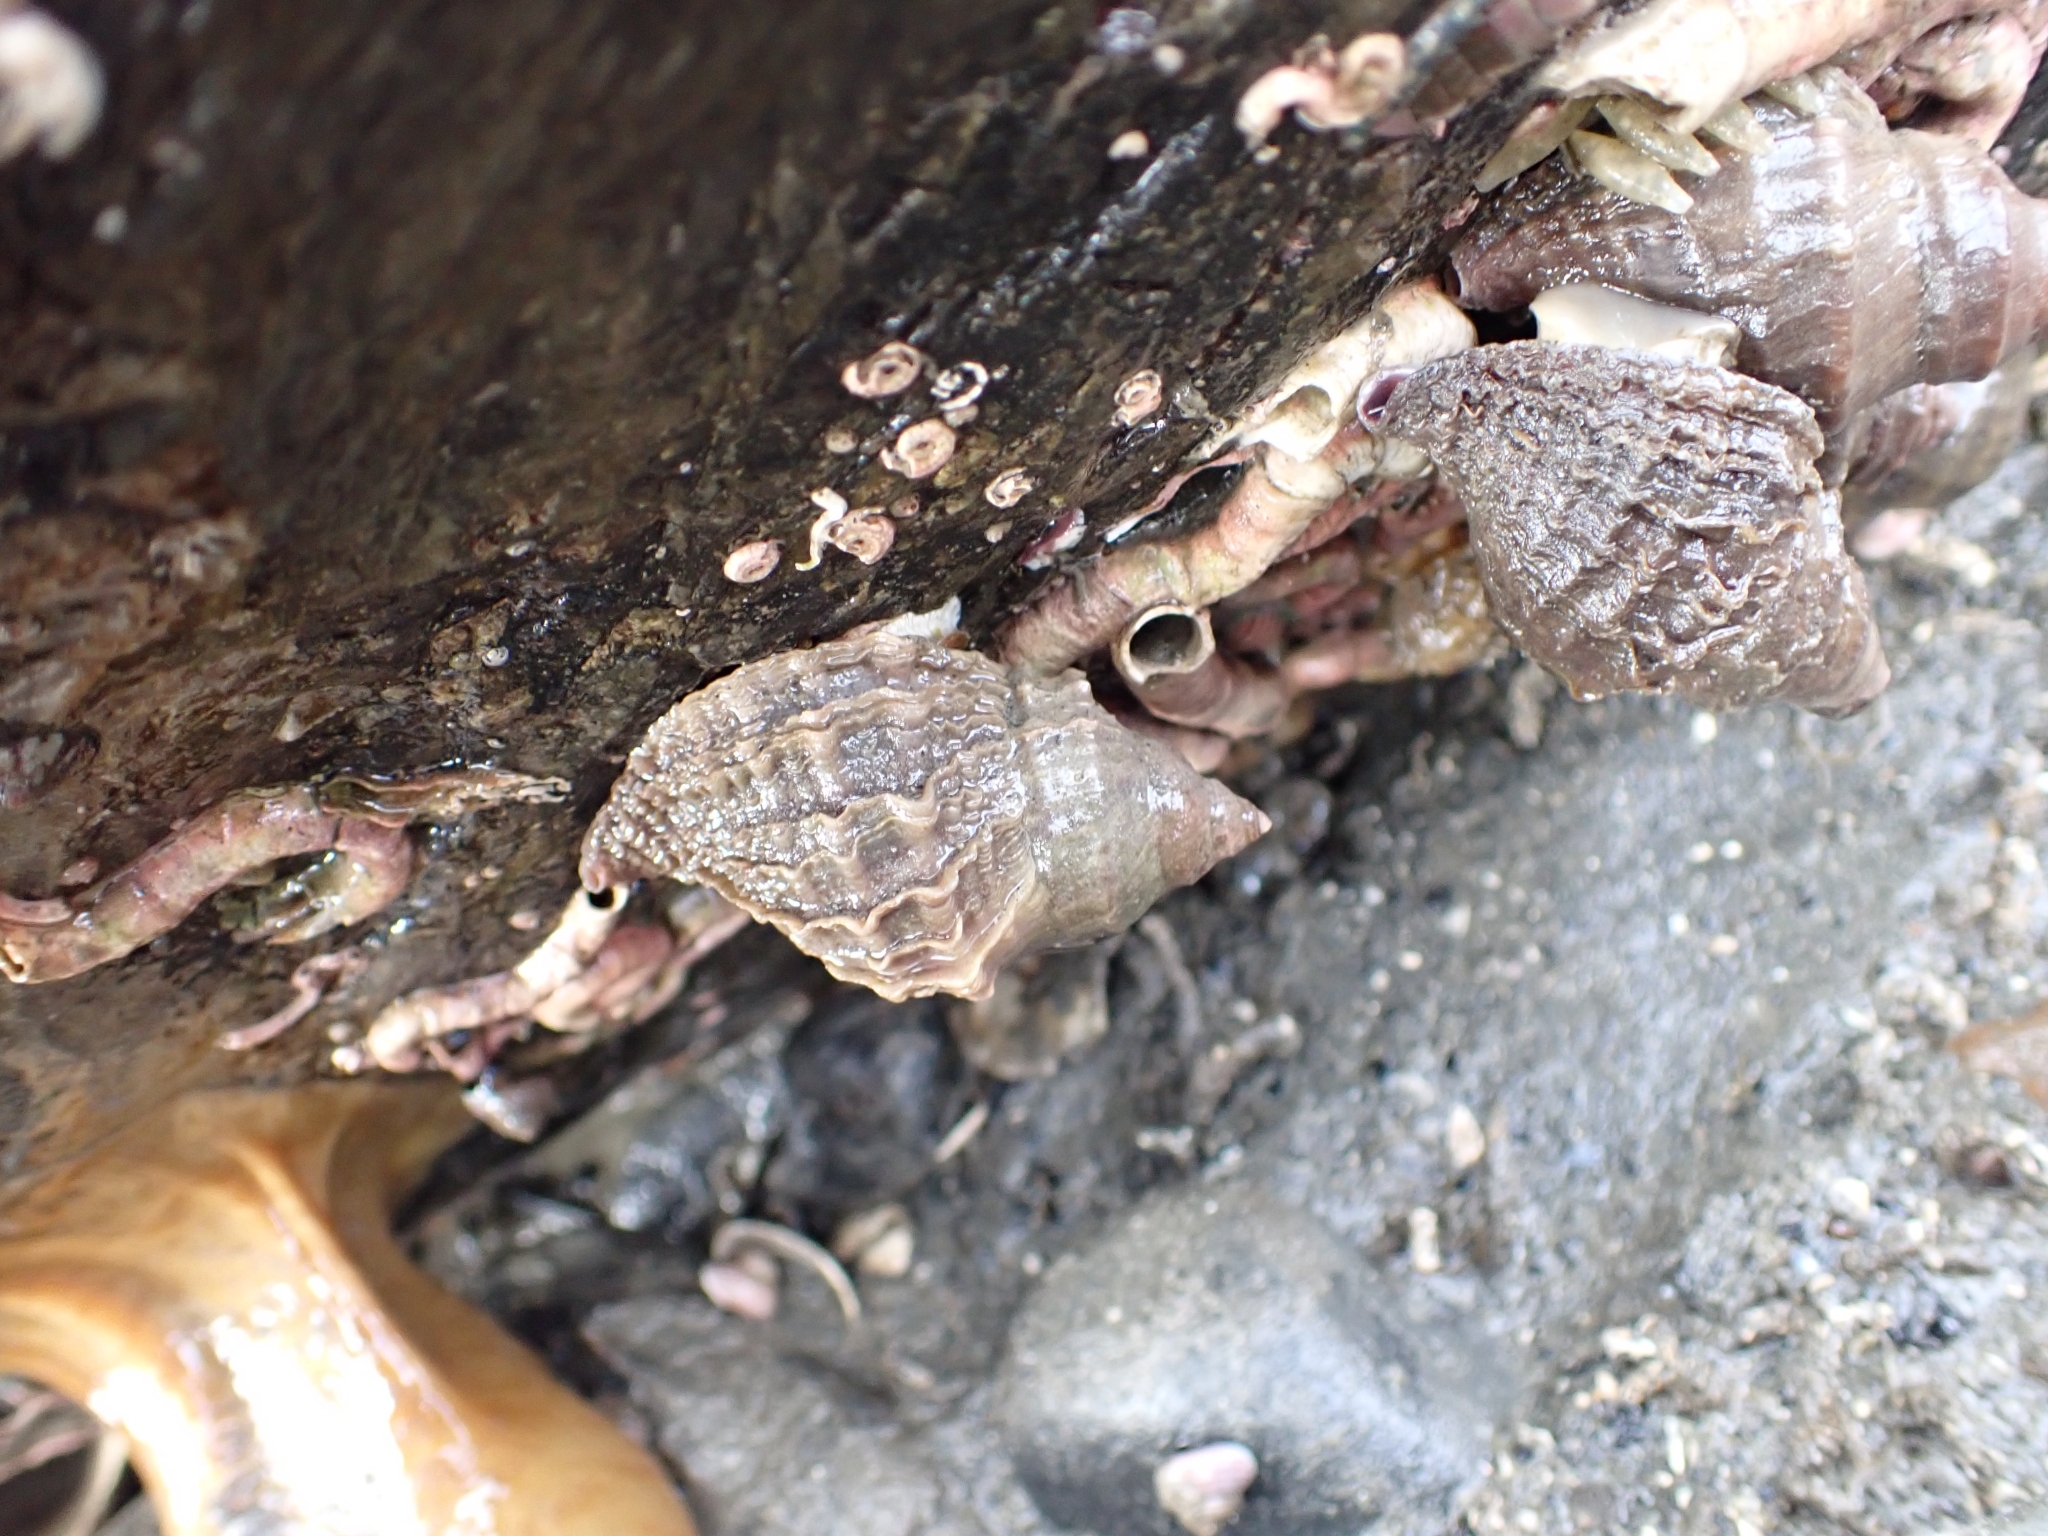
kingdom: Animalia
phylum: Mollusca
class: Gastropoda
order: Neogastropoda
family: Muricidae
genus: Nucella
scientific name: Nucella lamellosa
